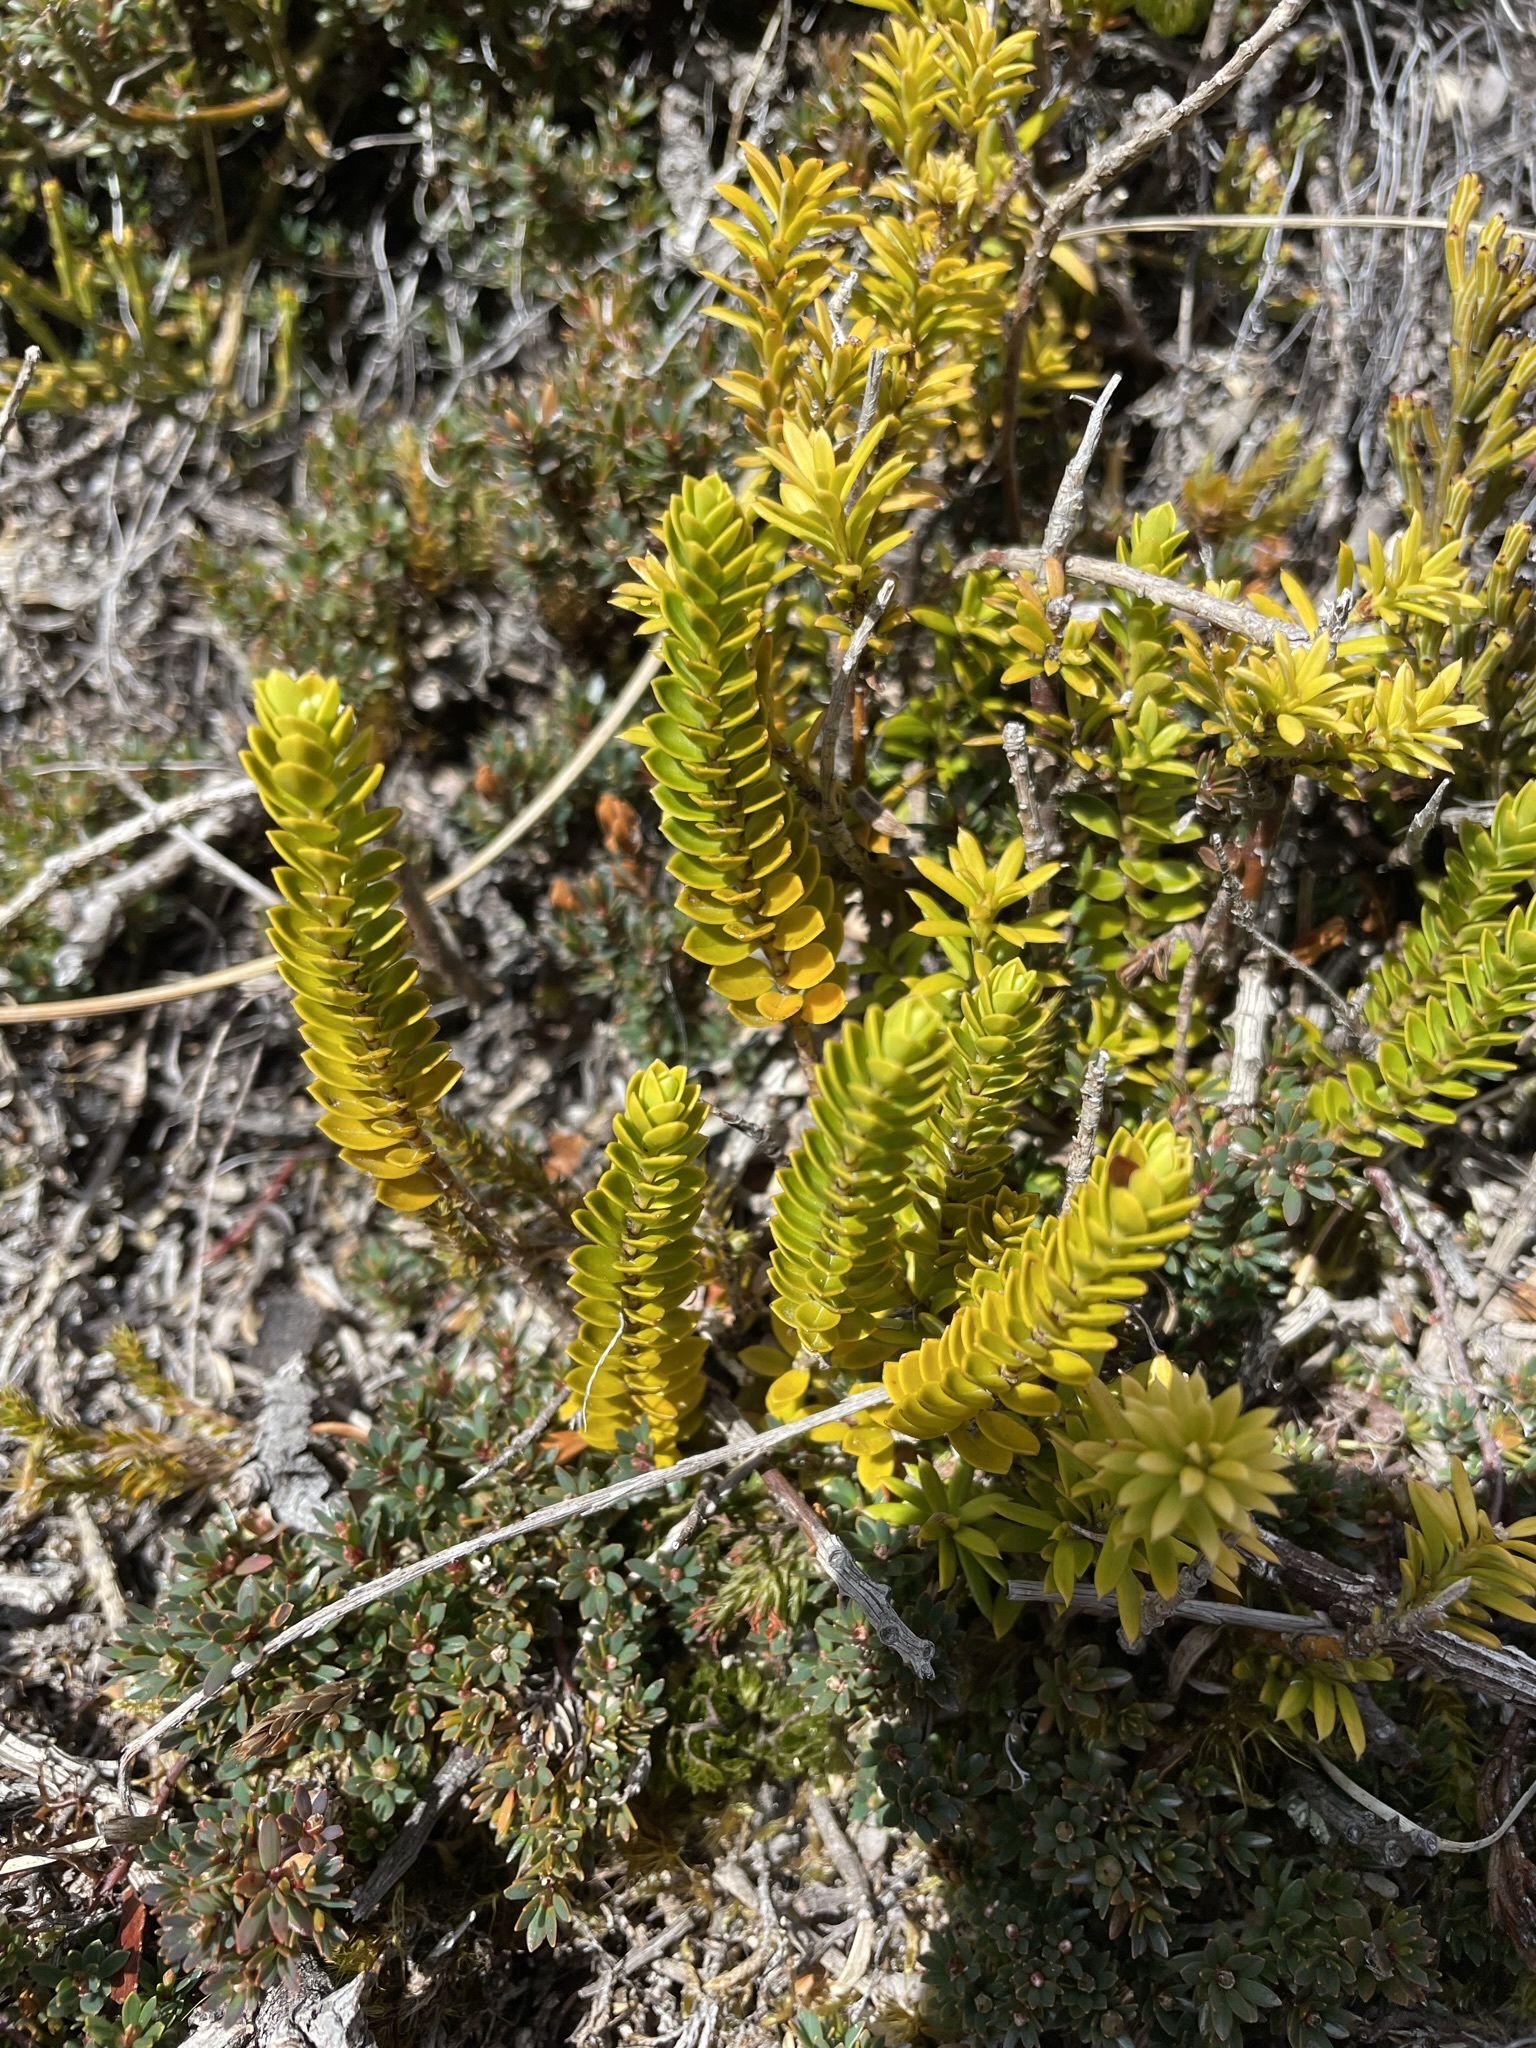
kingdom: Plantae
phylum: Tracheophyta
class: Magnoliopsida
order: Lamiales
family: Plantaginaceae
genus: Veronica
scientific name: Veronica pauciramosa
